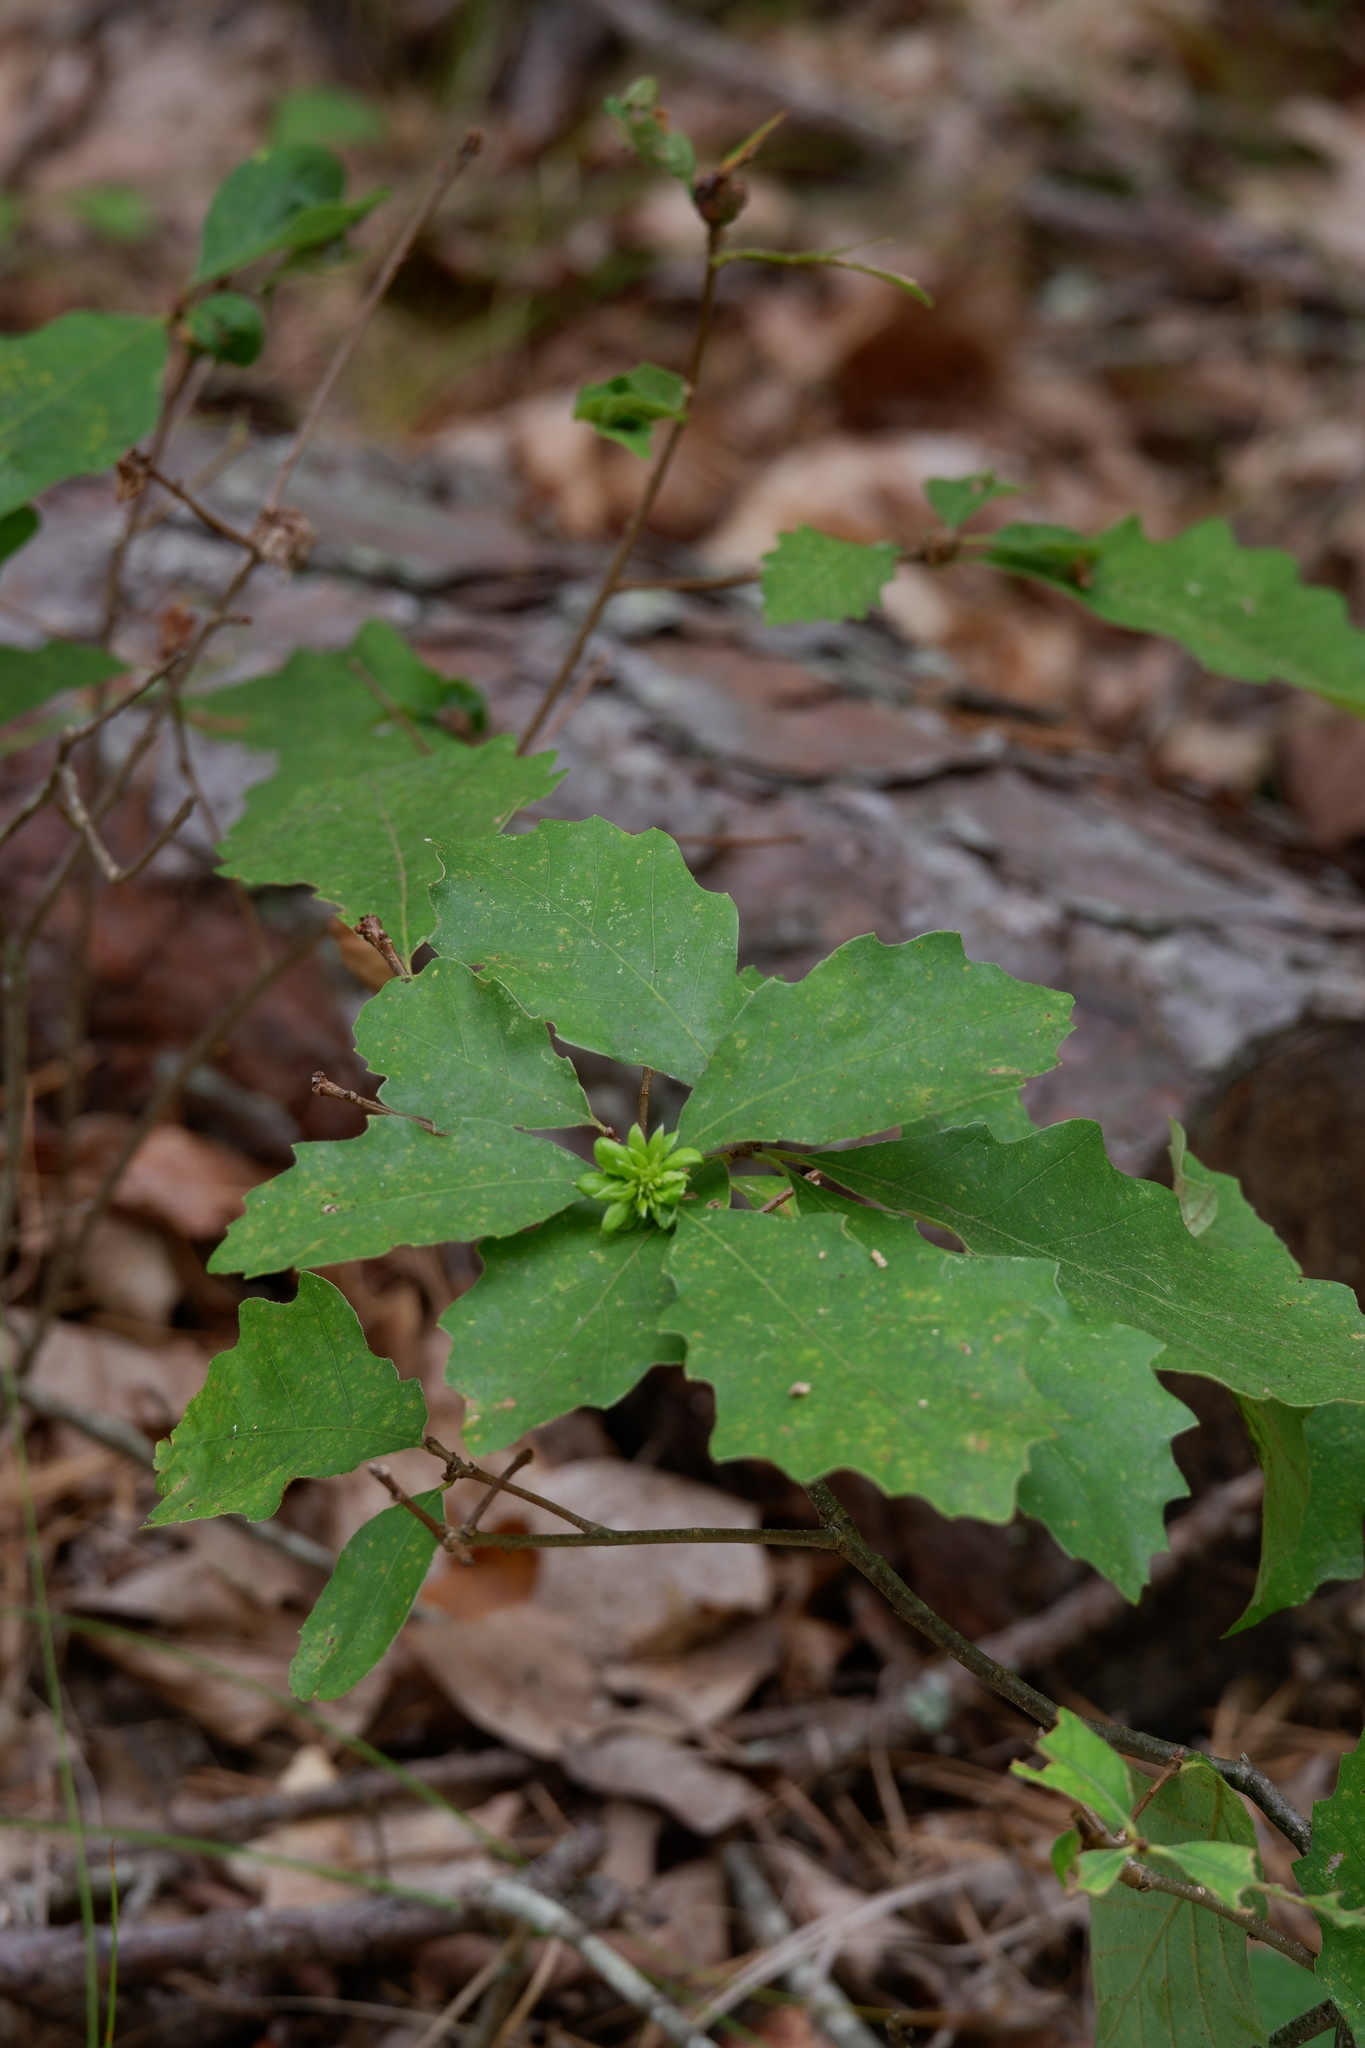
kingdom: Animalia
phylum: Arthropoda
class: Insecta
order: Hymenoptera
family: Cynipidae
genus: Andricus
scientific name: Andricus
